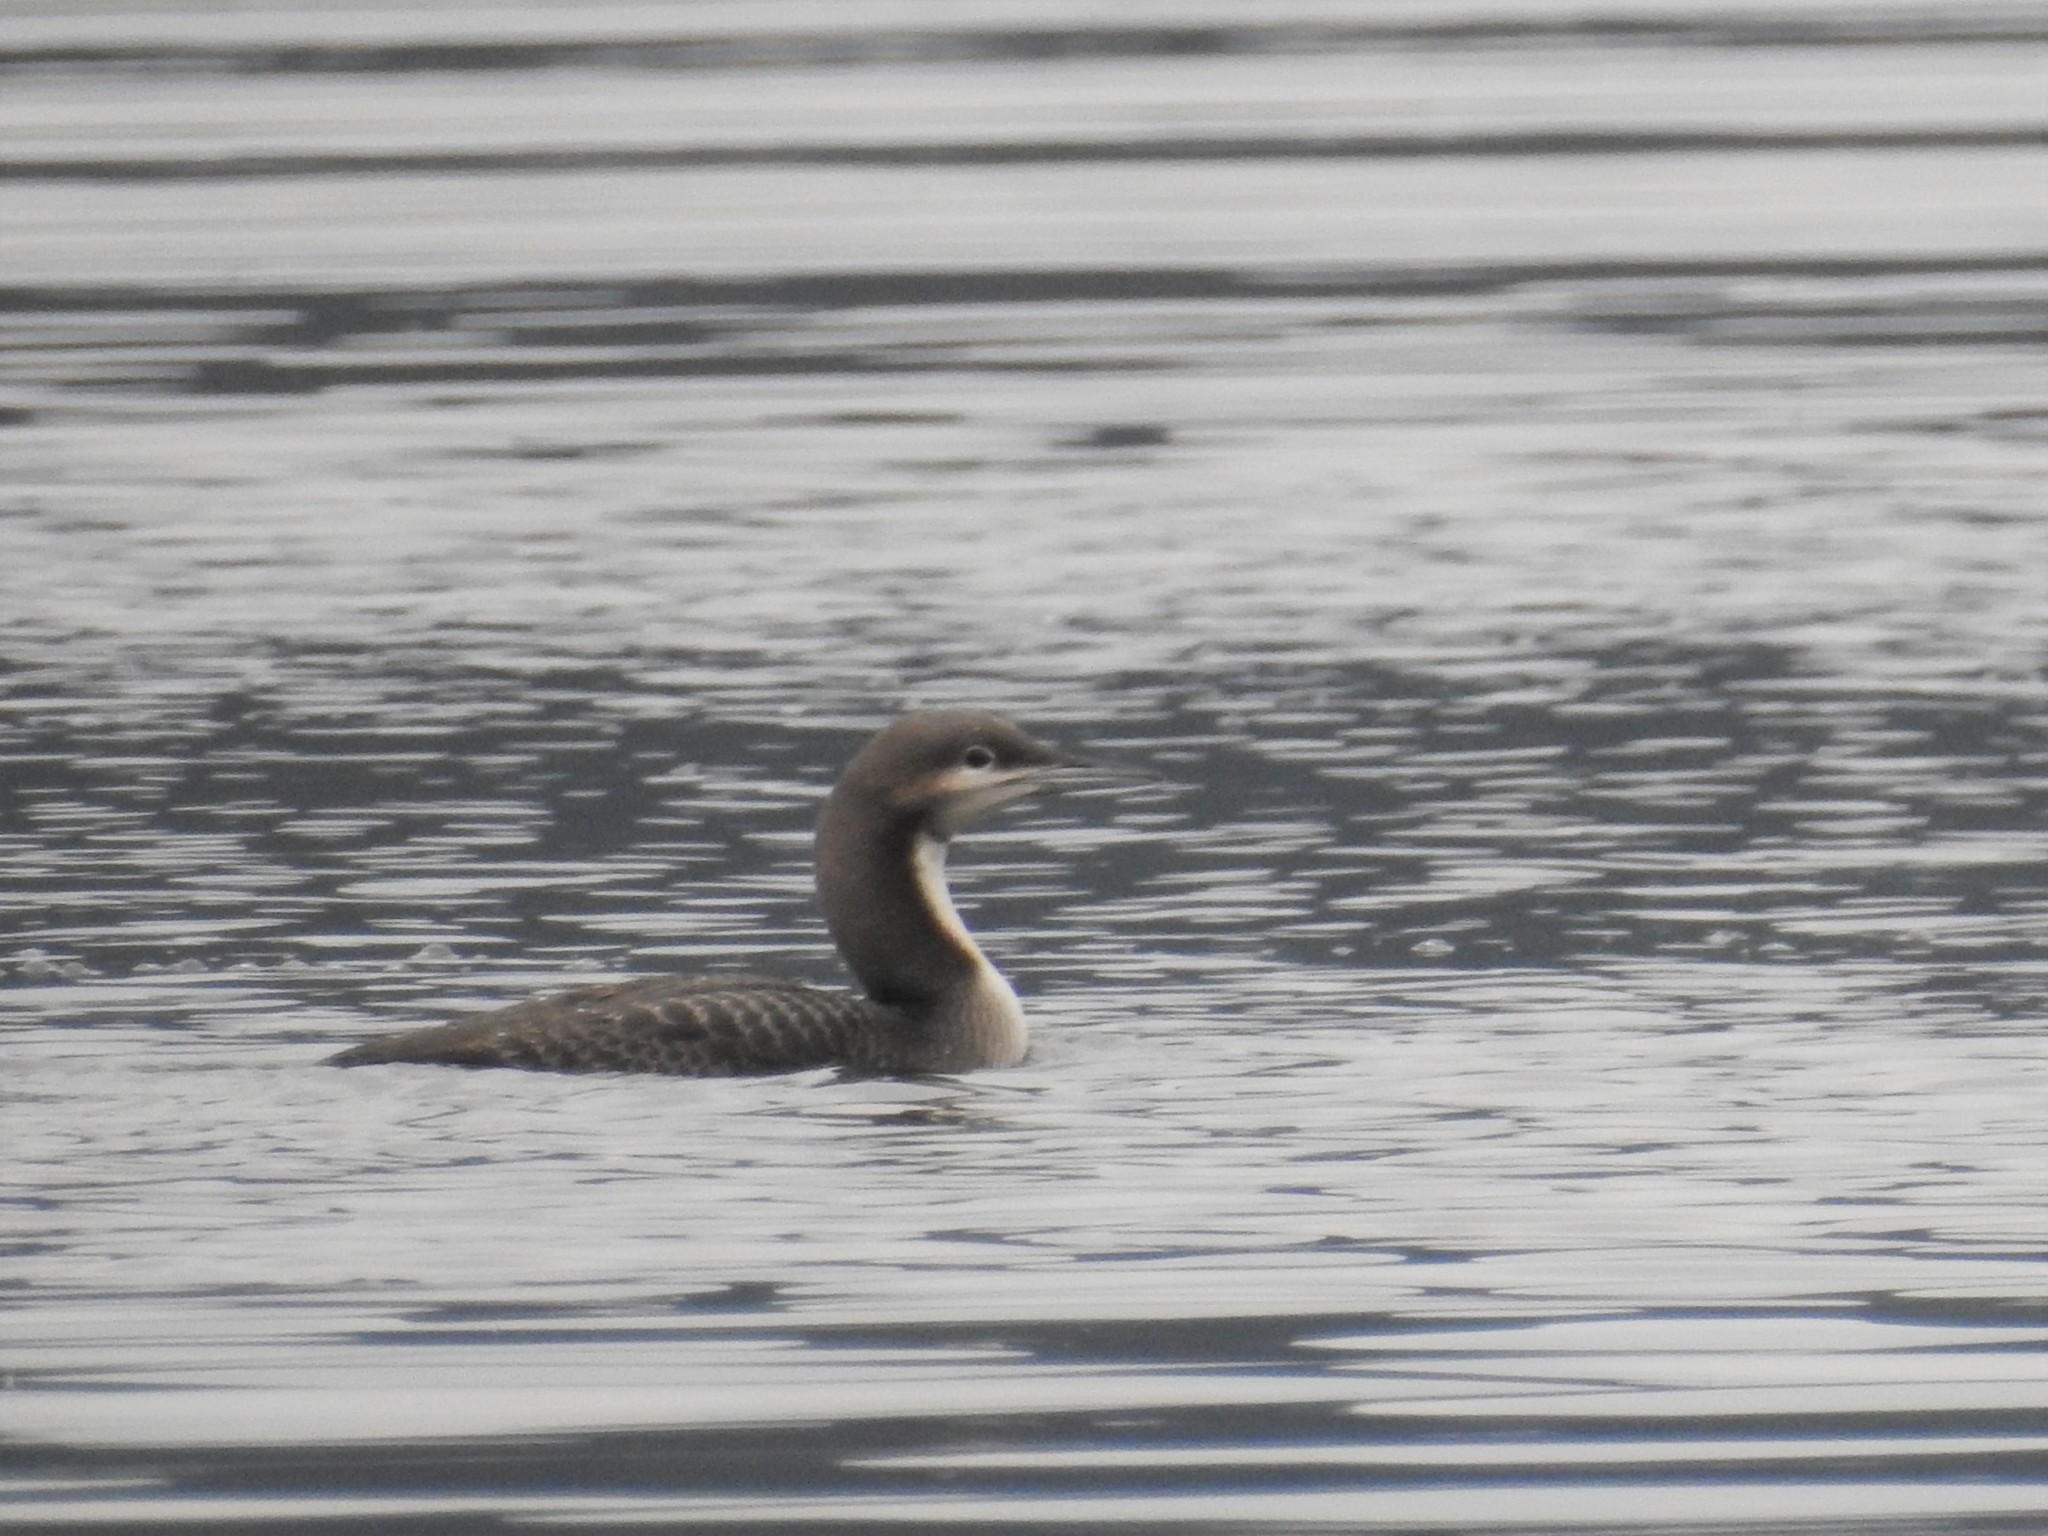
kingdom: Animalia
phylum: Chordata
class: Aves
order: Gaviiformes
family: Gaviidae
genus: Gavia
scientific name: Gavia pacifica
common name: Pacific loon
